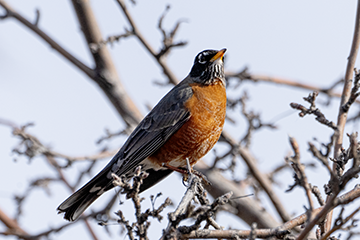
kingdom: Animalia
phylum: Chordata
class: Aves
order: Passeriformes
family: Turdidae
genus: Turdus
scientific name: Turdus migratorius
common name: American robin
